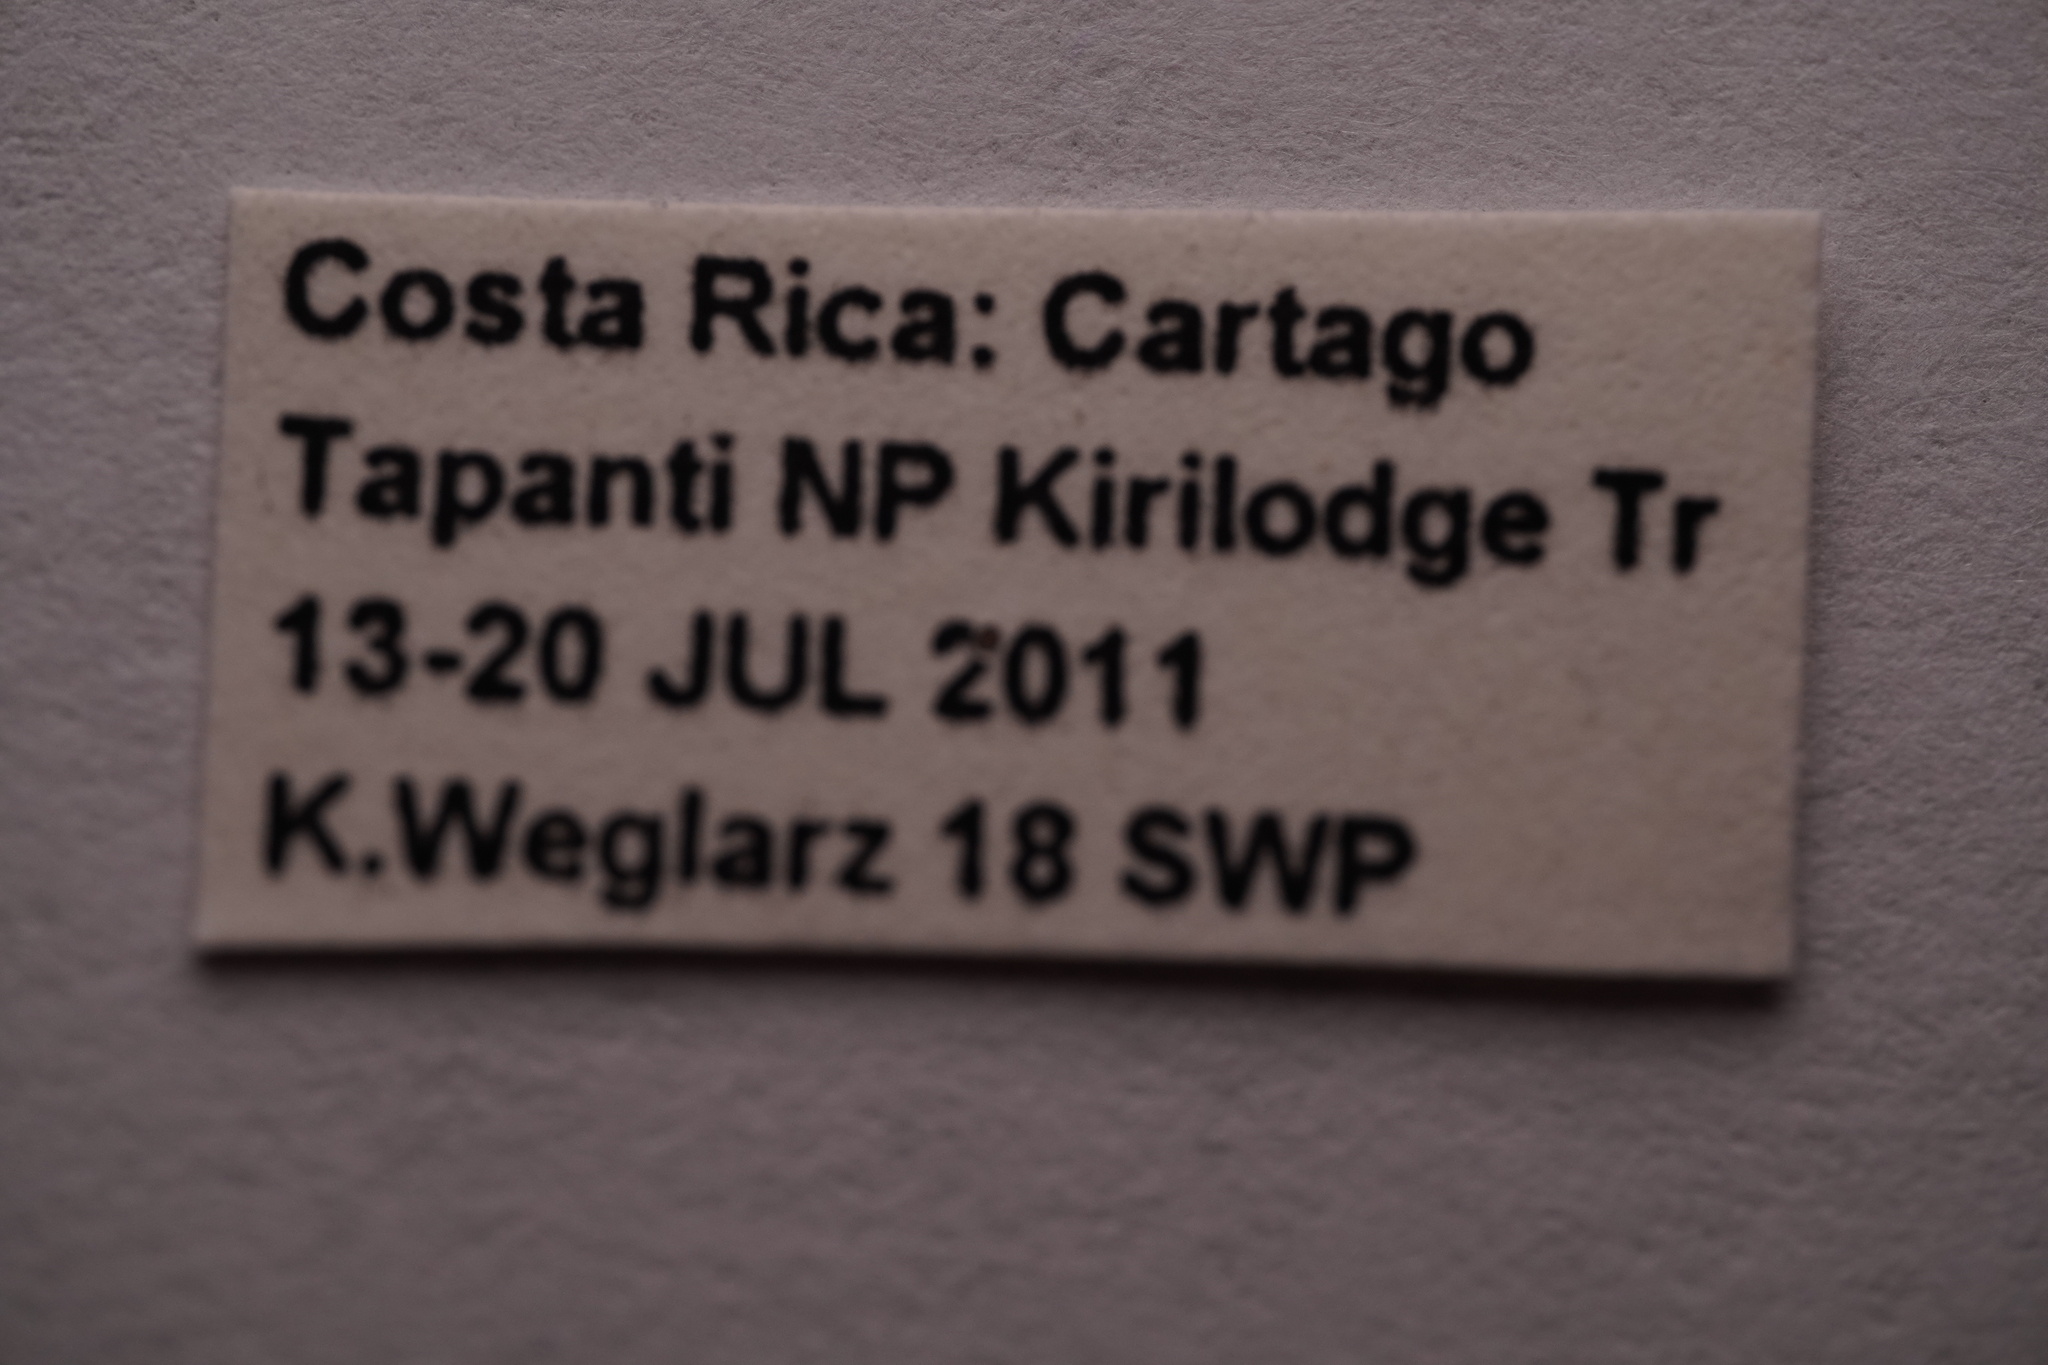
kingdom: Animalia
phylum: Arthropoda
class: Insecta
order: Coleoptera
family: Attelabidae
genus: Omolabus
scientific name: Omolabus callosus
